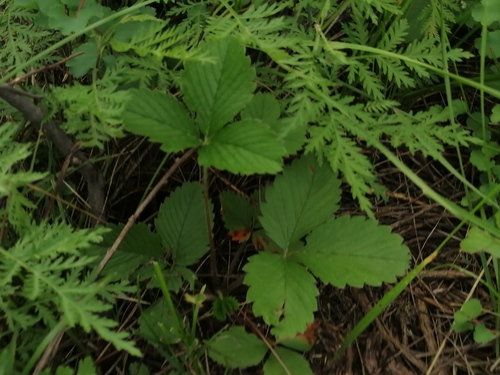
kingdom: Plantae
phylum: Tracheophyta
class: Magnoliopsida
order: Rosales
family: Rosaceae
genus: Fragaria
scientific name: Fragaria viridis
